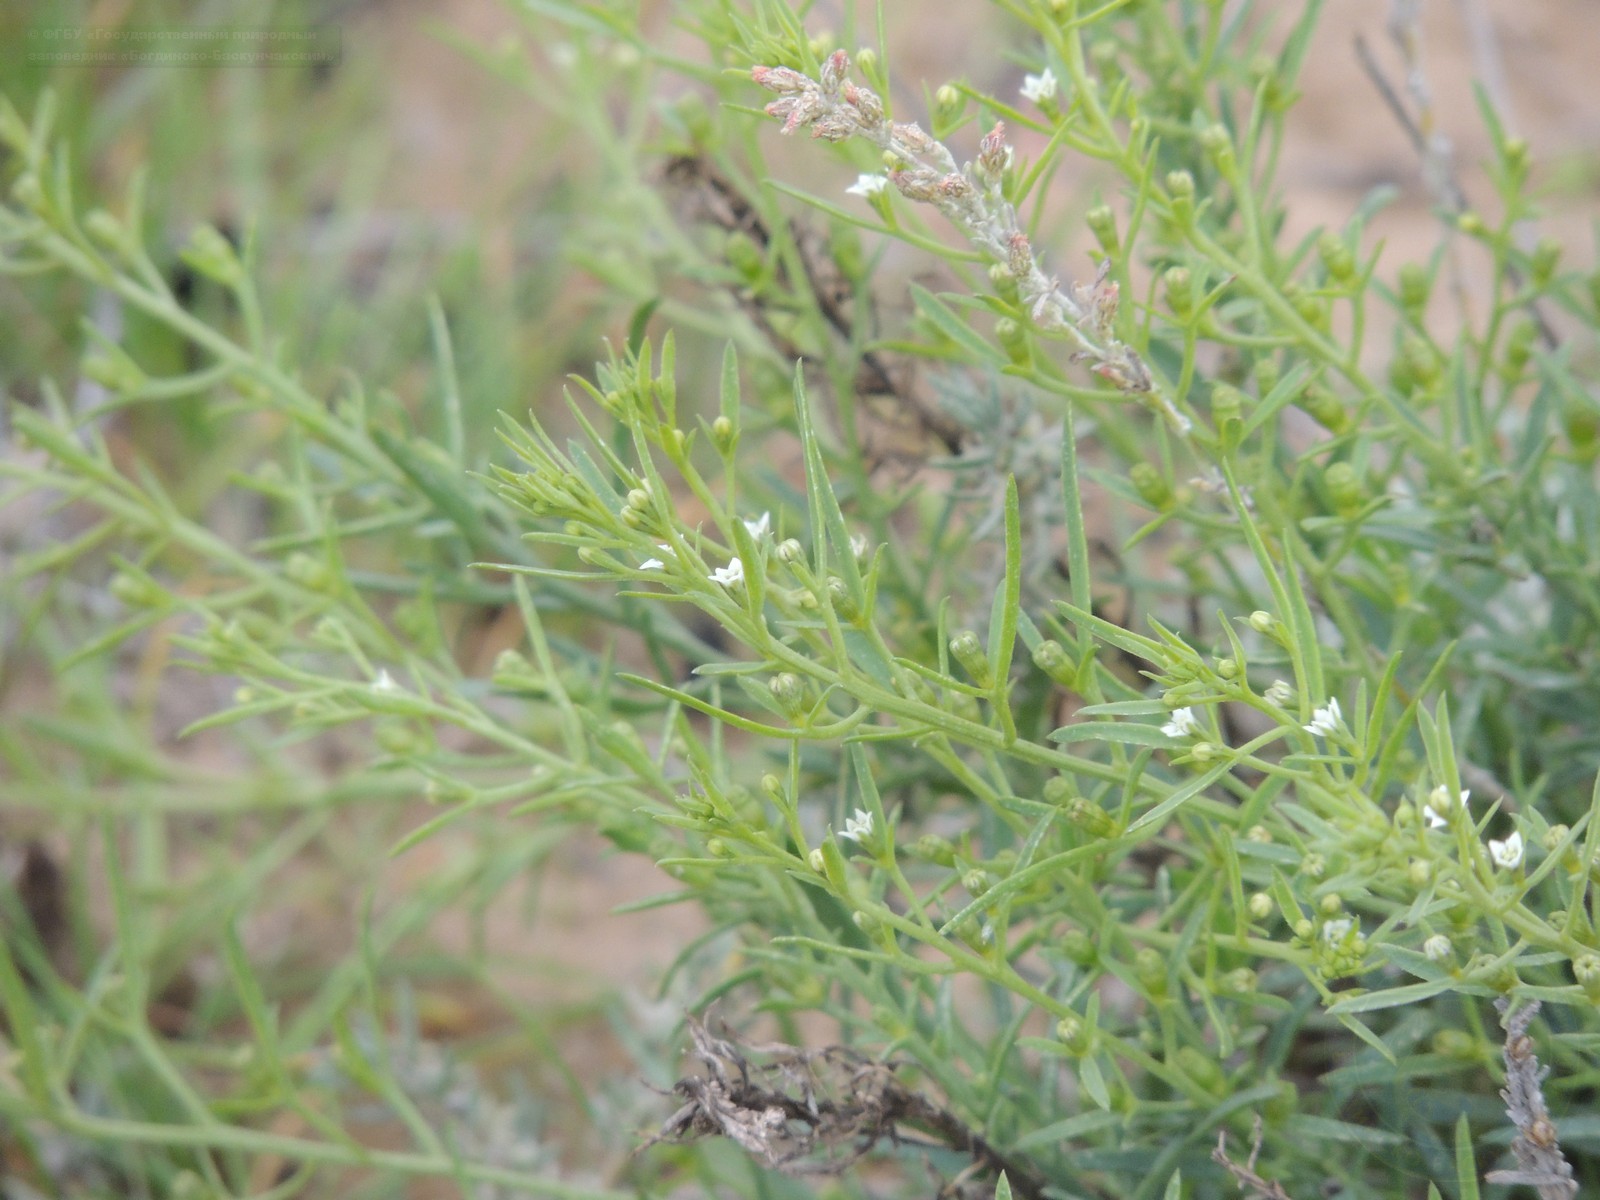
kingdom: Plantae
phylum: Tracheophyta
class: Magnoliopsida
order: Santalales
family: Thesiaceae
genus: Thesium
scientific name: Thesium ramosum
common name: Field thesium
